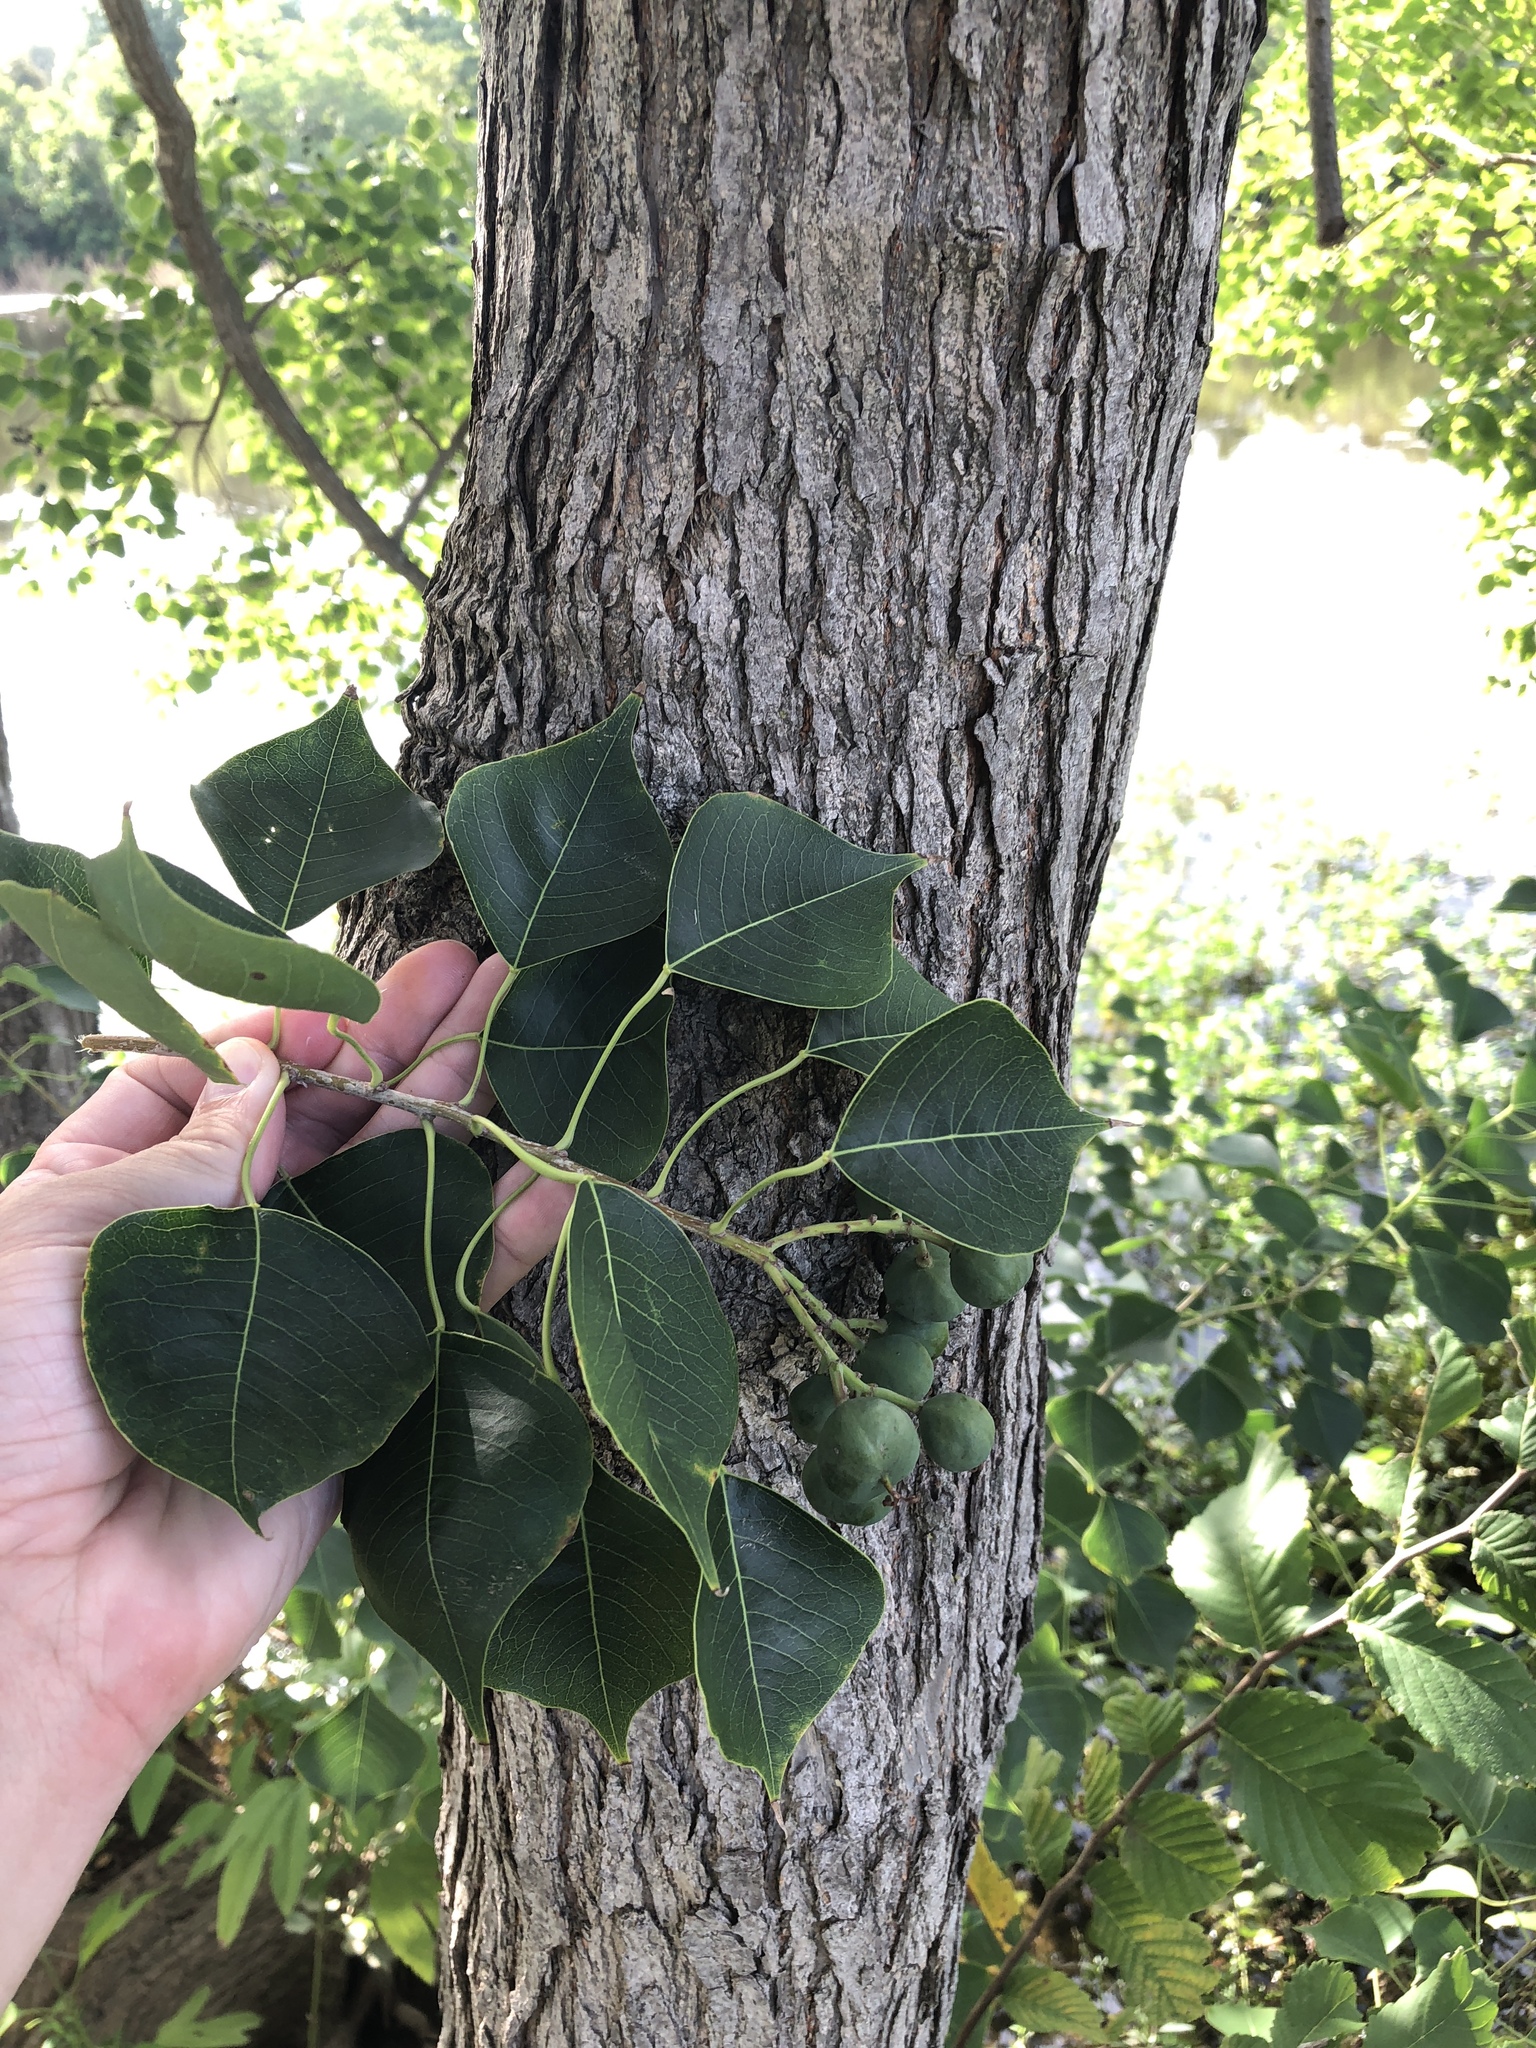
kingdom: Plantae
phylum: Tracheophyta
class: Magnoliopsida
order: Malpighiales
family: Euphorbiaceae
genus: Triadica
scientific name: Triadica sebifera
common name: Chinese tallow
